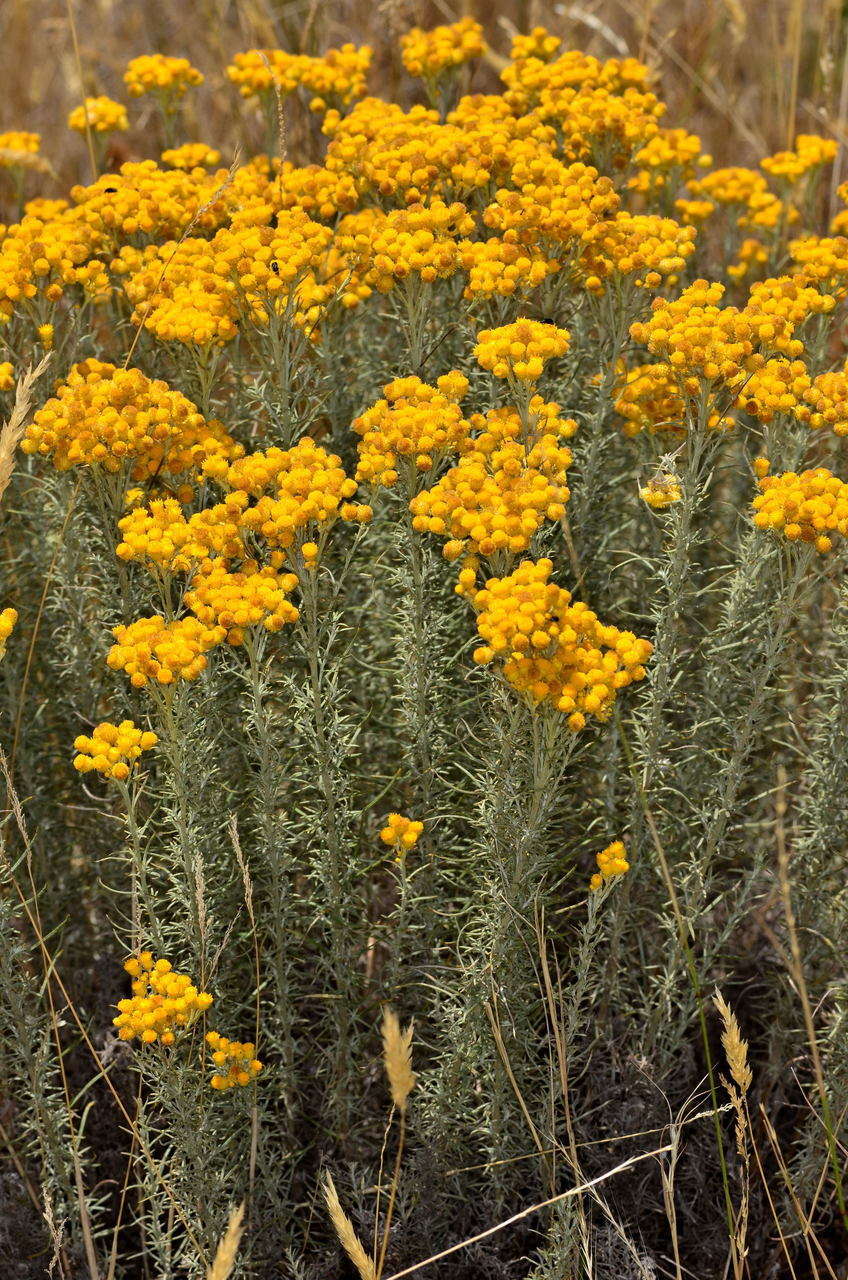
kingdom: Plantae
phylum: Tracheophyta
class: Magnoliopsida
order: Asterales
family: Asteraceae
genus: Chrysocephalum
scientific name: Chrysocephalum semipapposum
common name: Clustered everlasting
